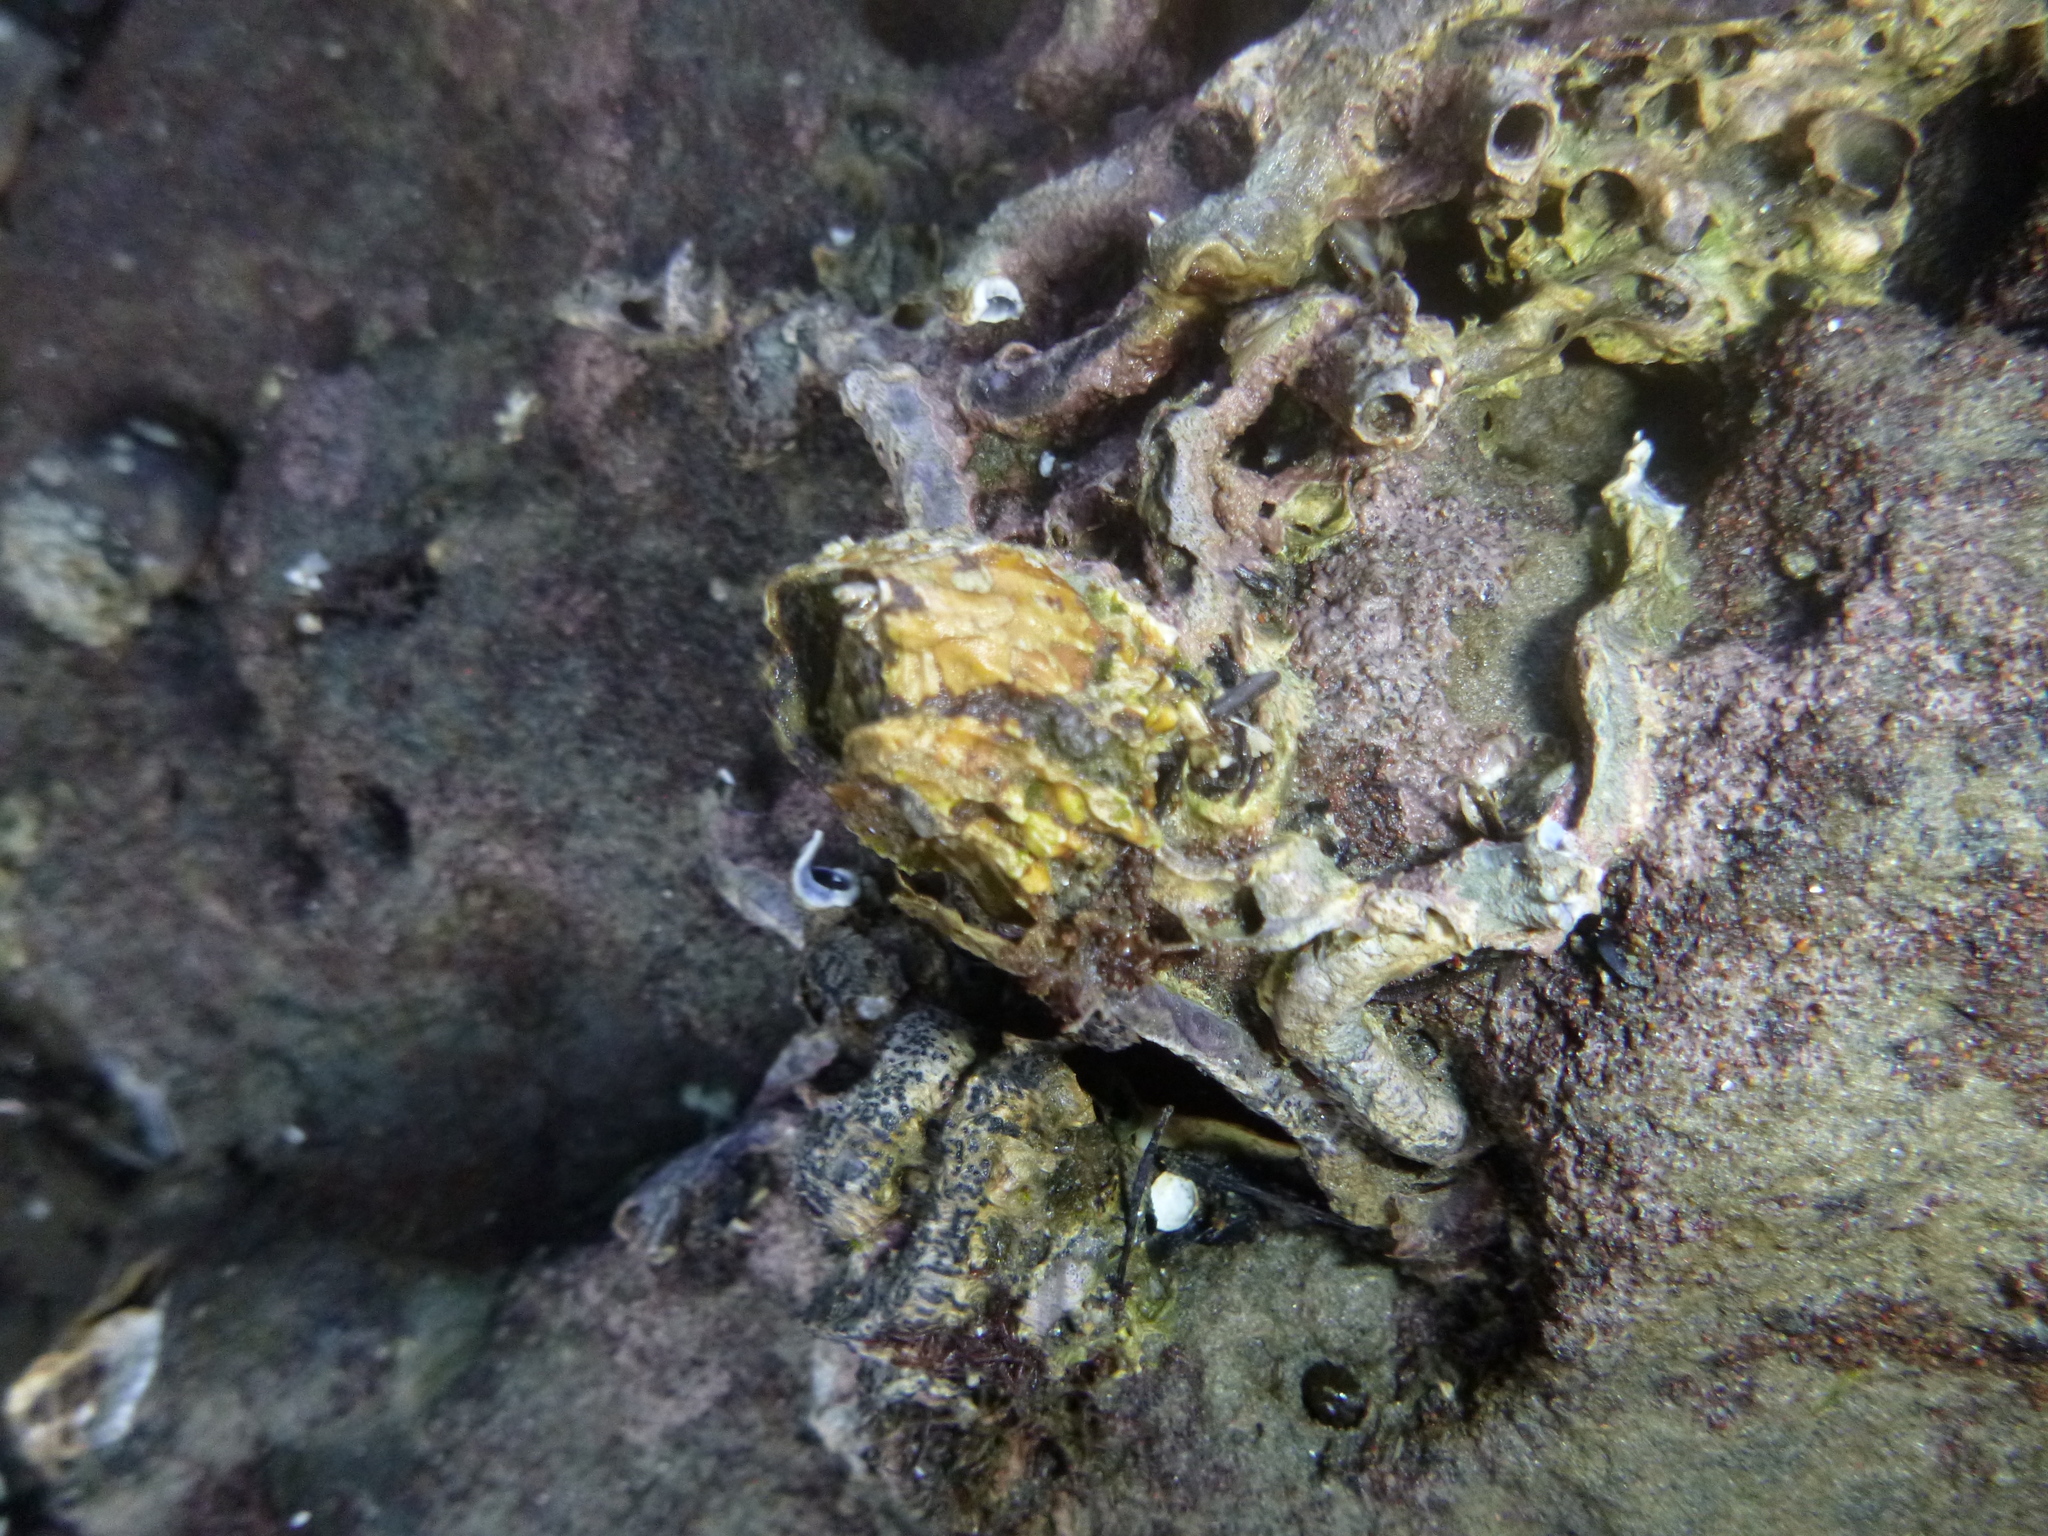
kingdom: Animalia
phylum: Arthropoda
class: Maxillopoda
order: Sessilia
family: Tetraclitidae
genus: Epopella
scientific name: Epopella plicata
